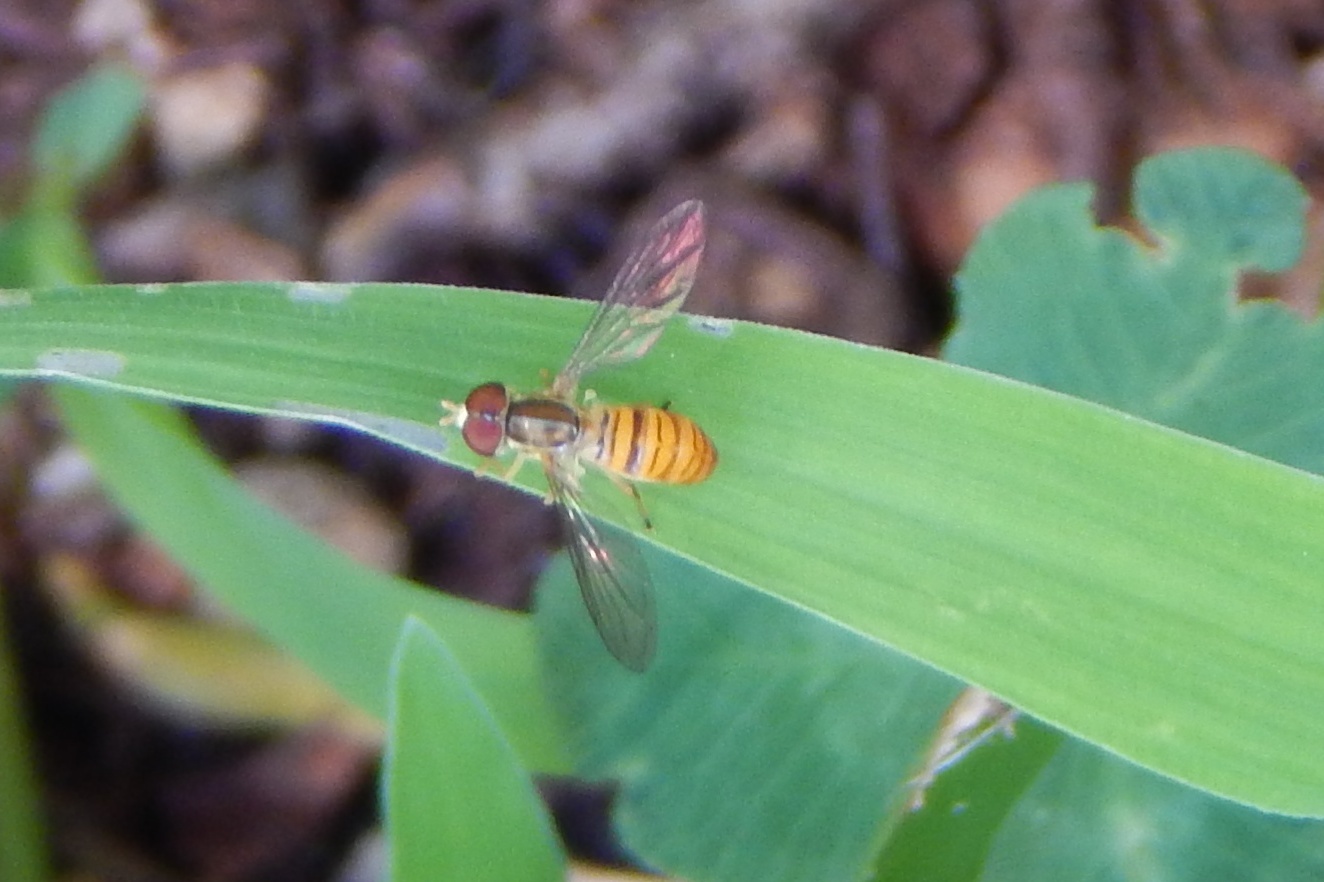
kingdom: Animalia
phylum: Arthropoda
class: Insecta
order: Diptera
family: Syrphidae
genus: Toxomerus
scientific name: Toxomerus politus
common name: Maize calligrapher
